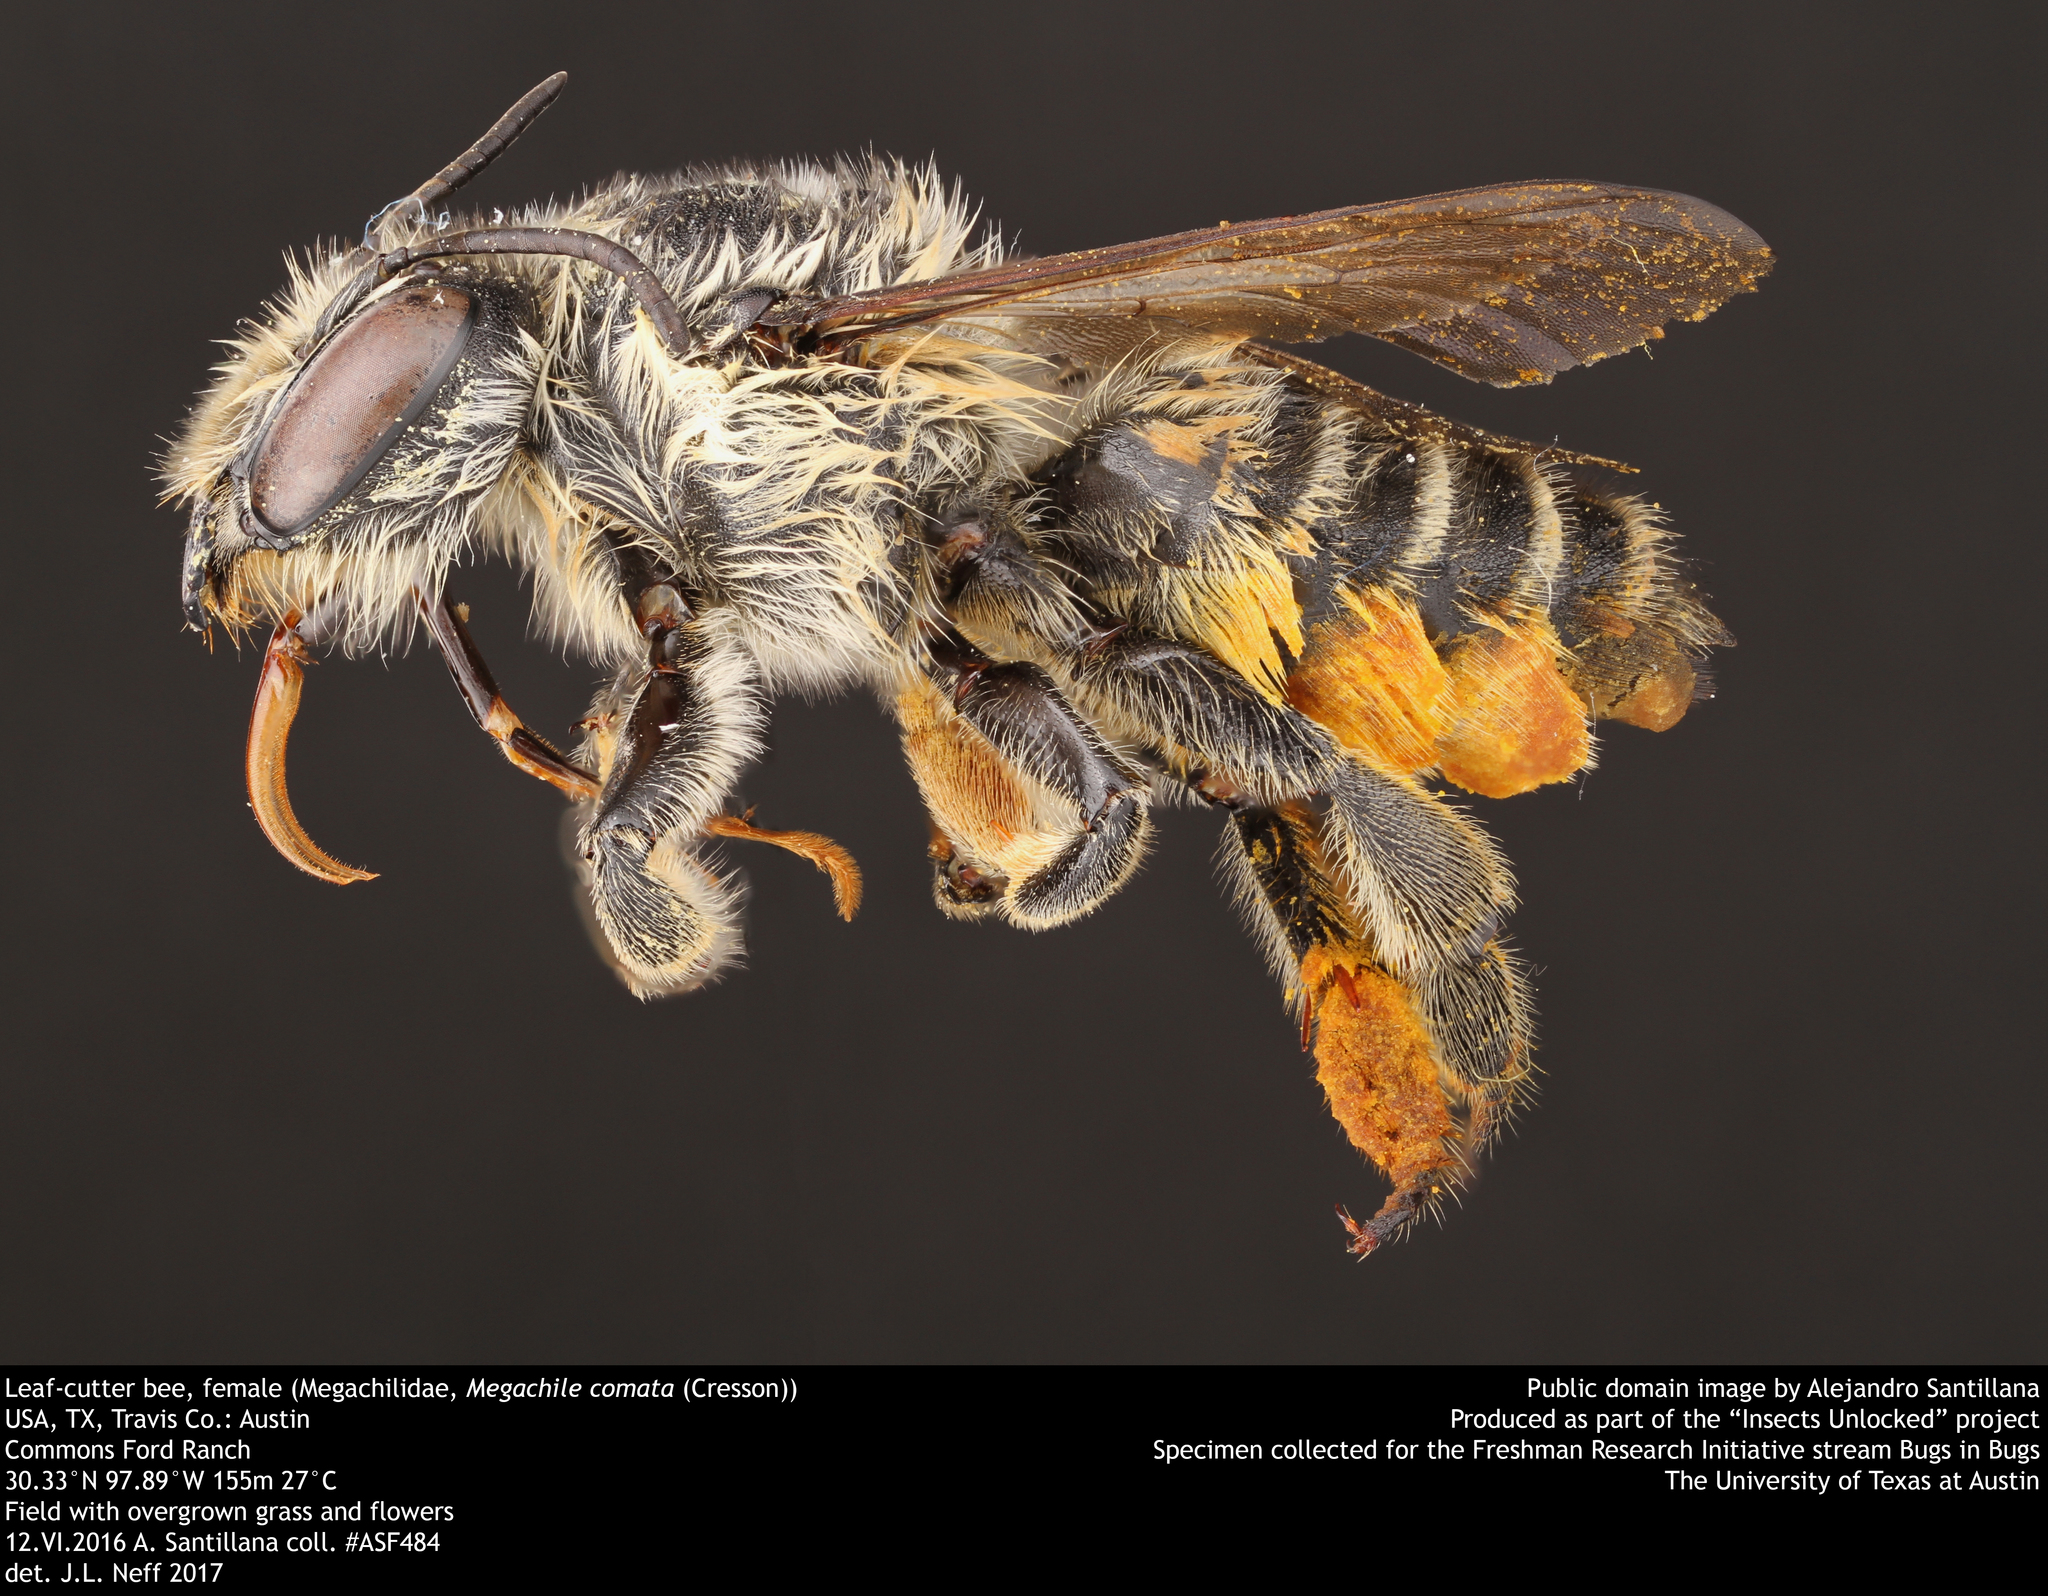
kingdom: Animalia
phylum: Arthropoda
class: Insecta
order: Hymenoptera
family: Megachilidae
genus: Megachile
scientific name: Megachile comata
